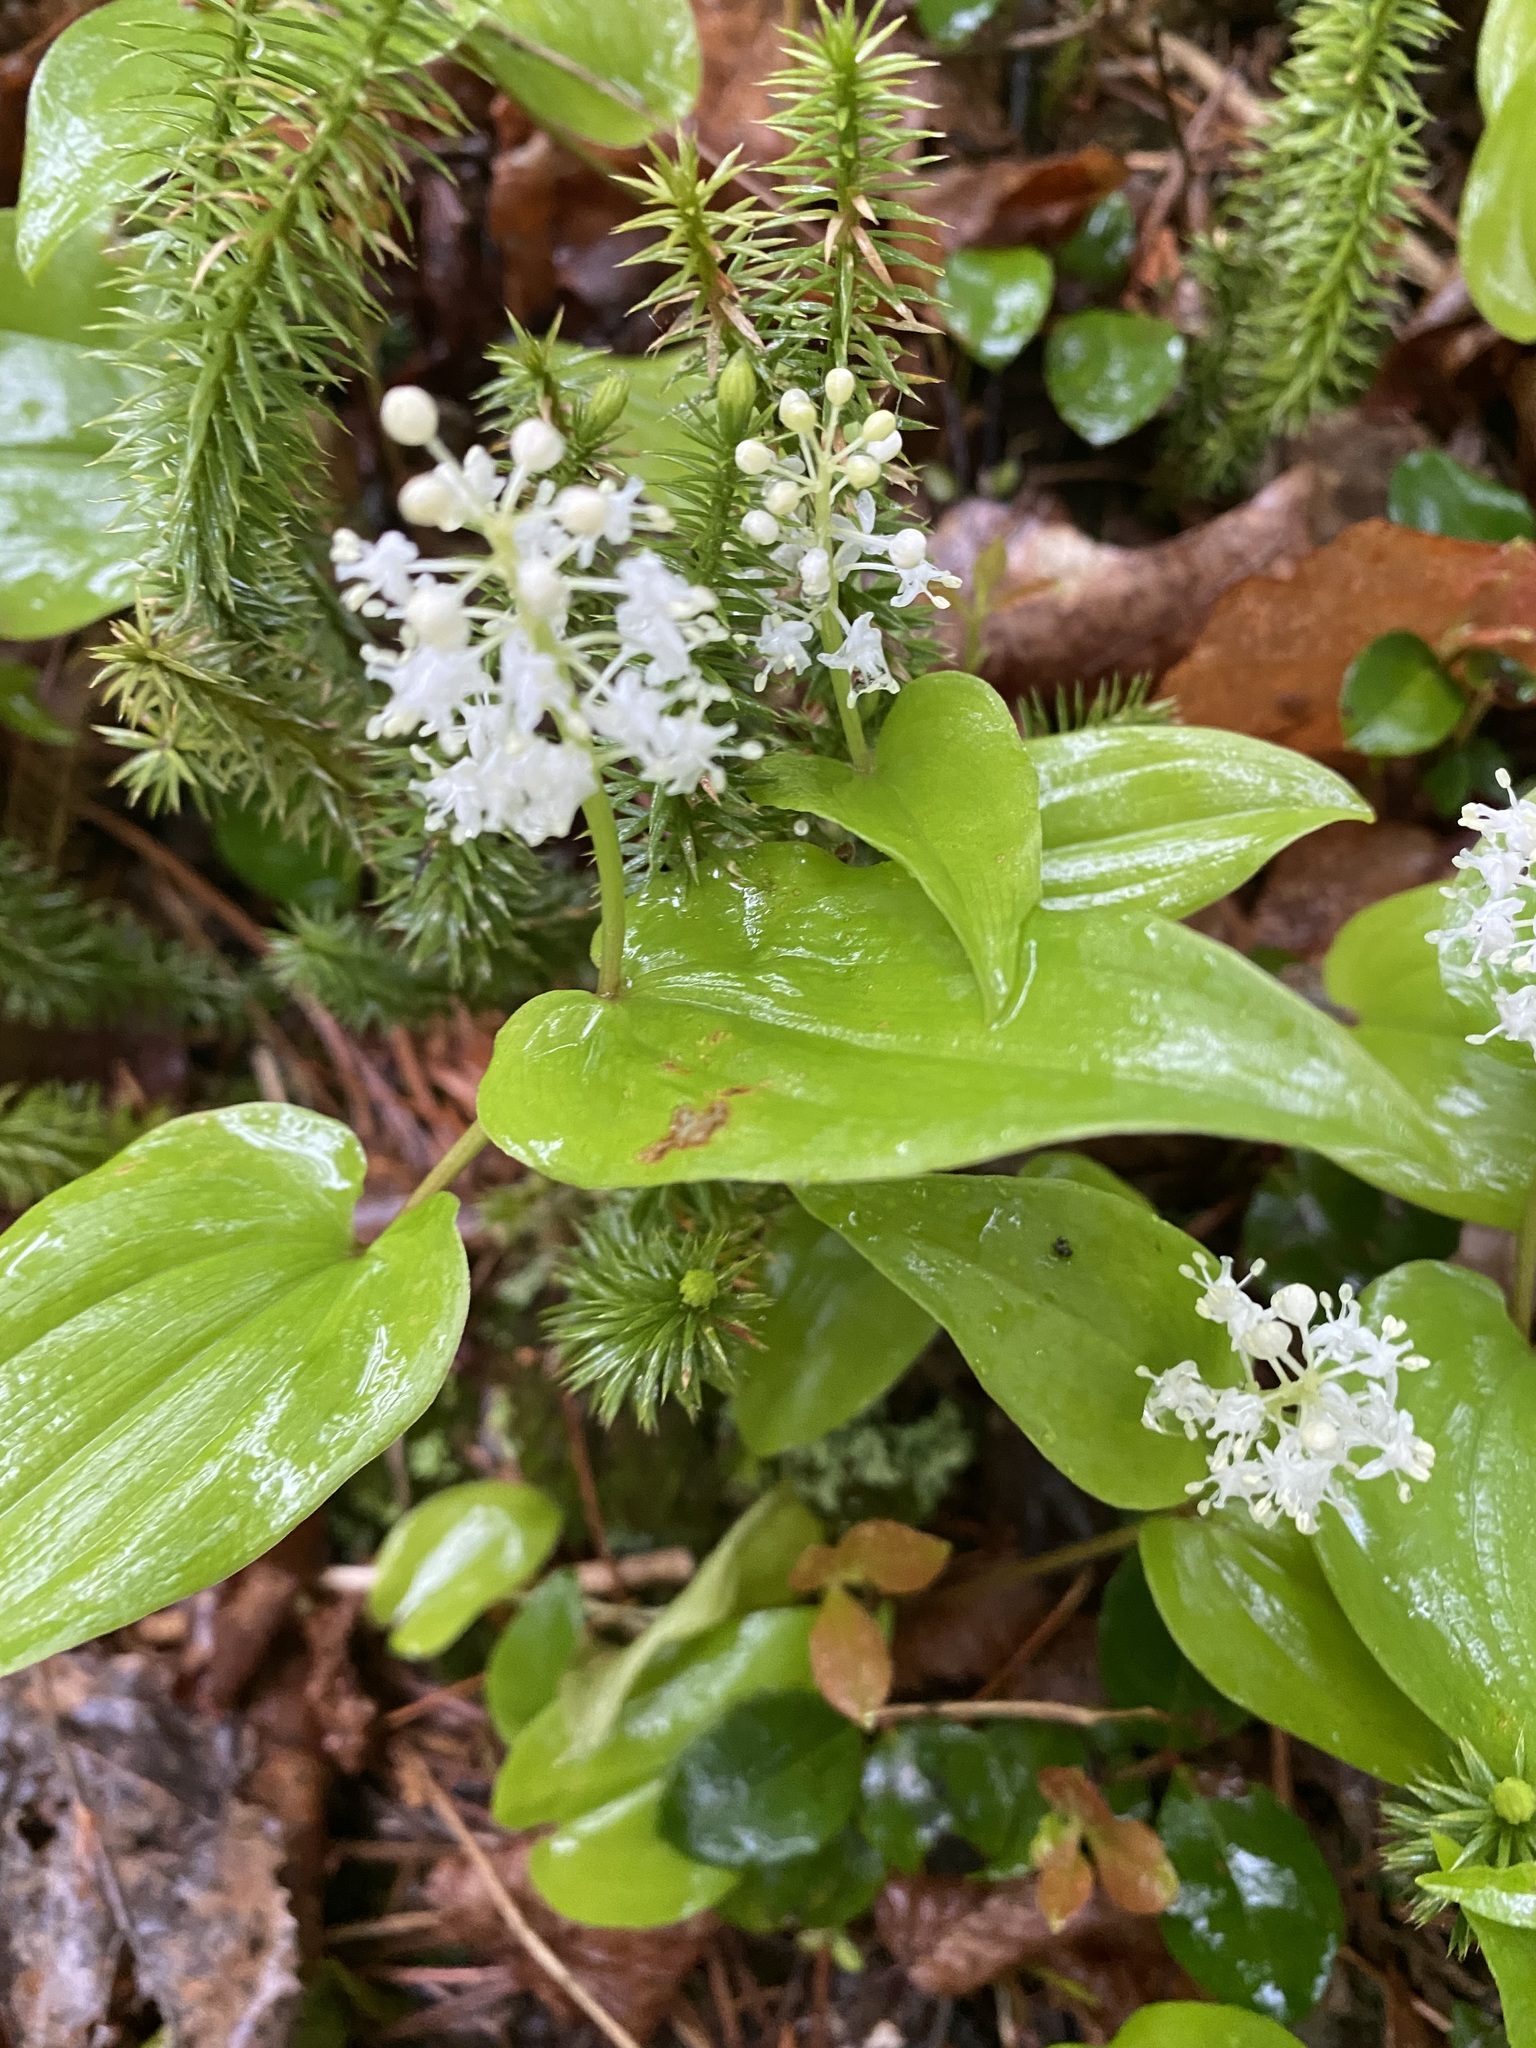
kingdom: Plantae
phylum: Tracheophyta
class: Liliopsida
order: Asparagales
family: Asparagaceae
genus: Maianthemum
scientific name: Maianthemum canadense
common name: False lily-of-the-valley
